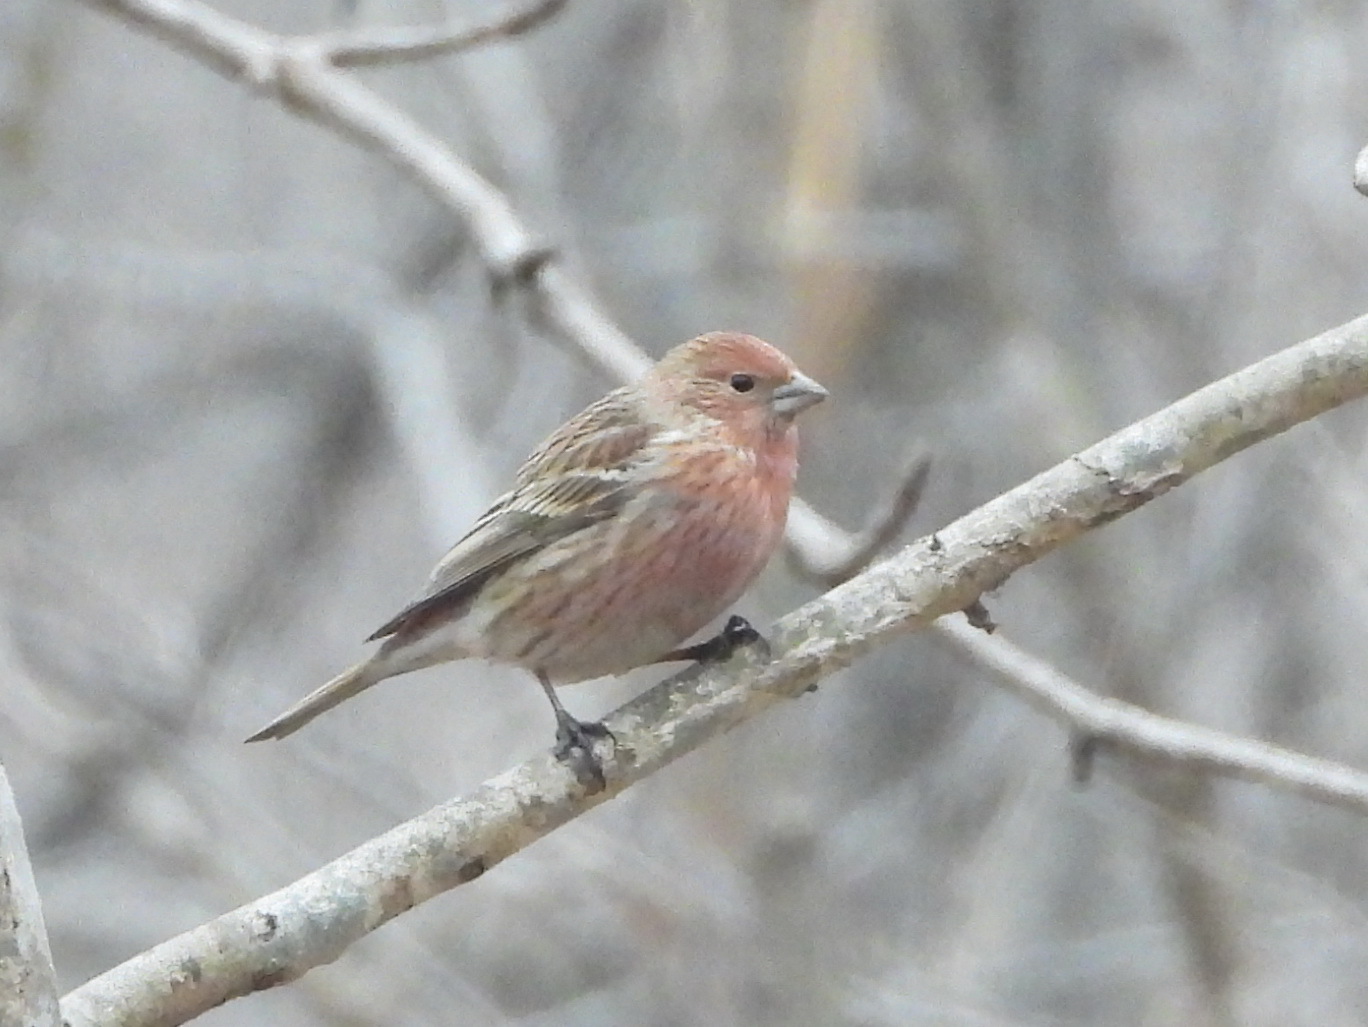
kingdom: Animalia
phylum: Chordata
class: Aves
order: Passeriformes
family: Fringillidae
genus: Carpodacus
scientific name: Carpodacus roseus
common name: Pallas's rosefinch
